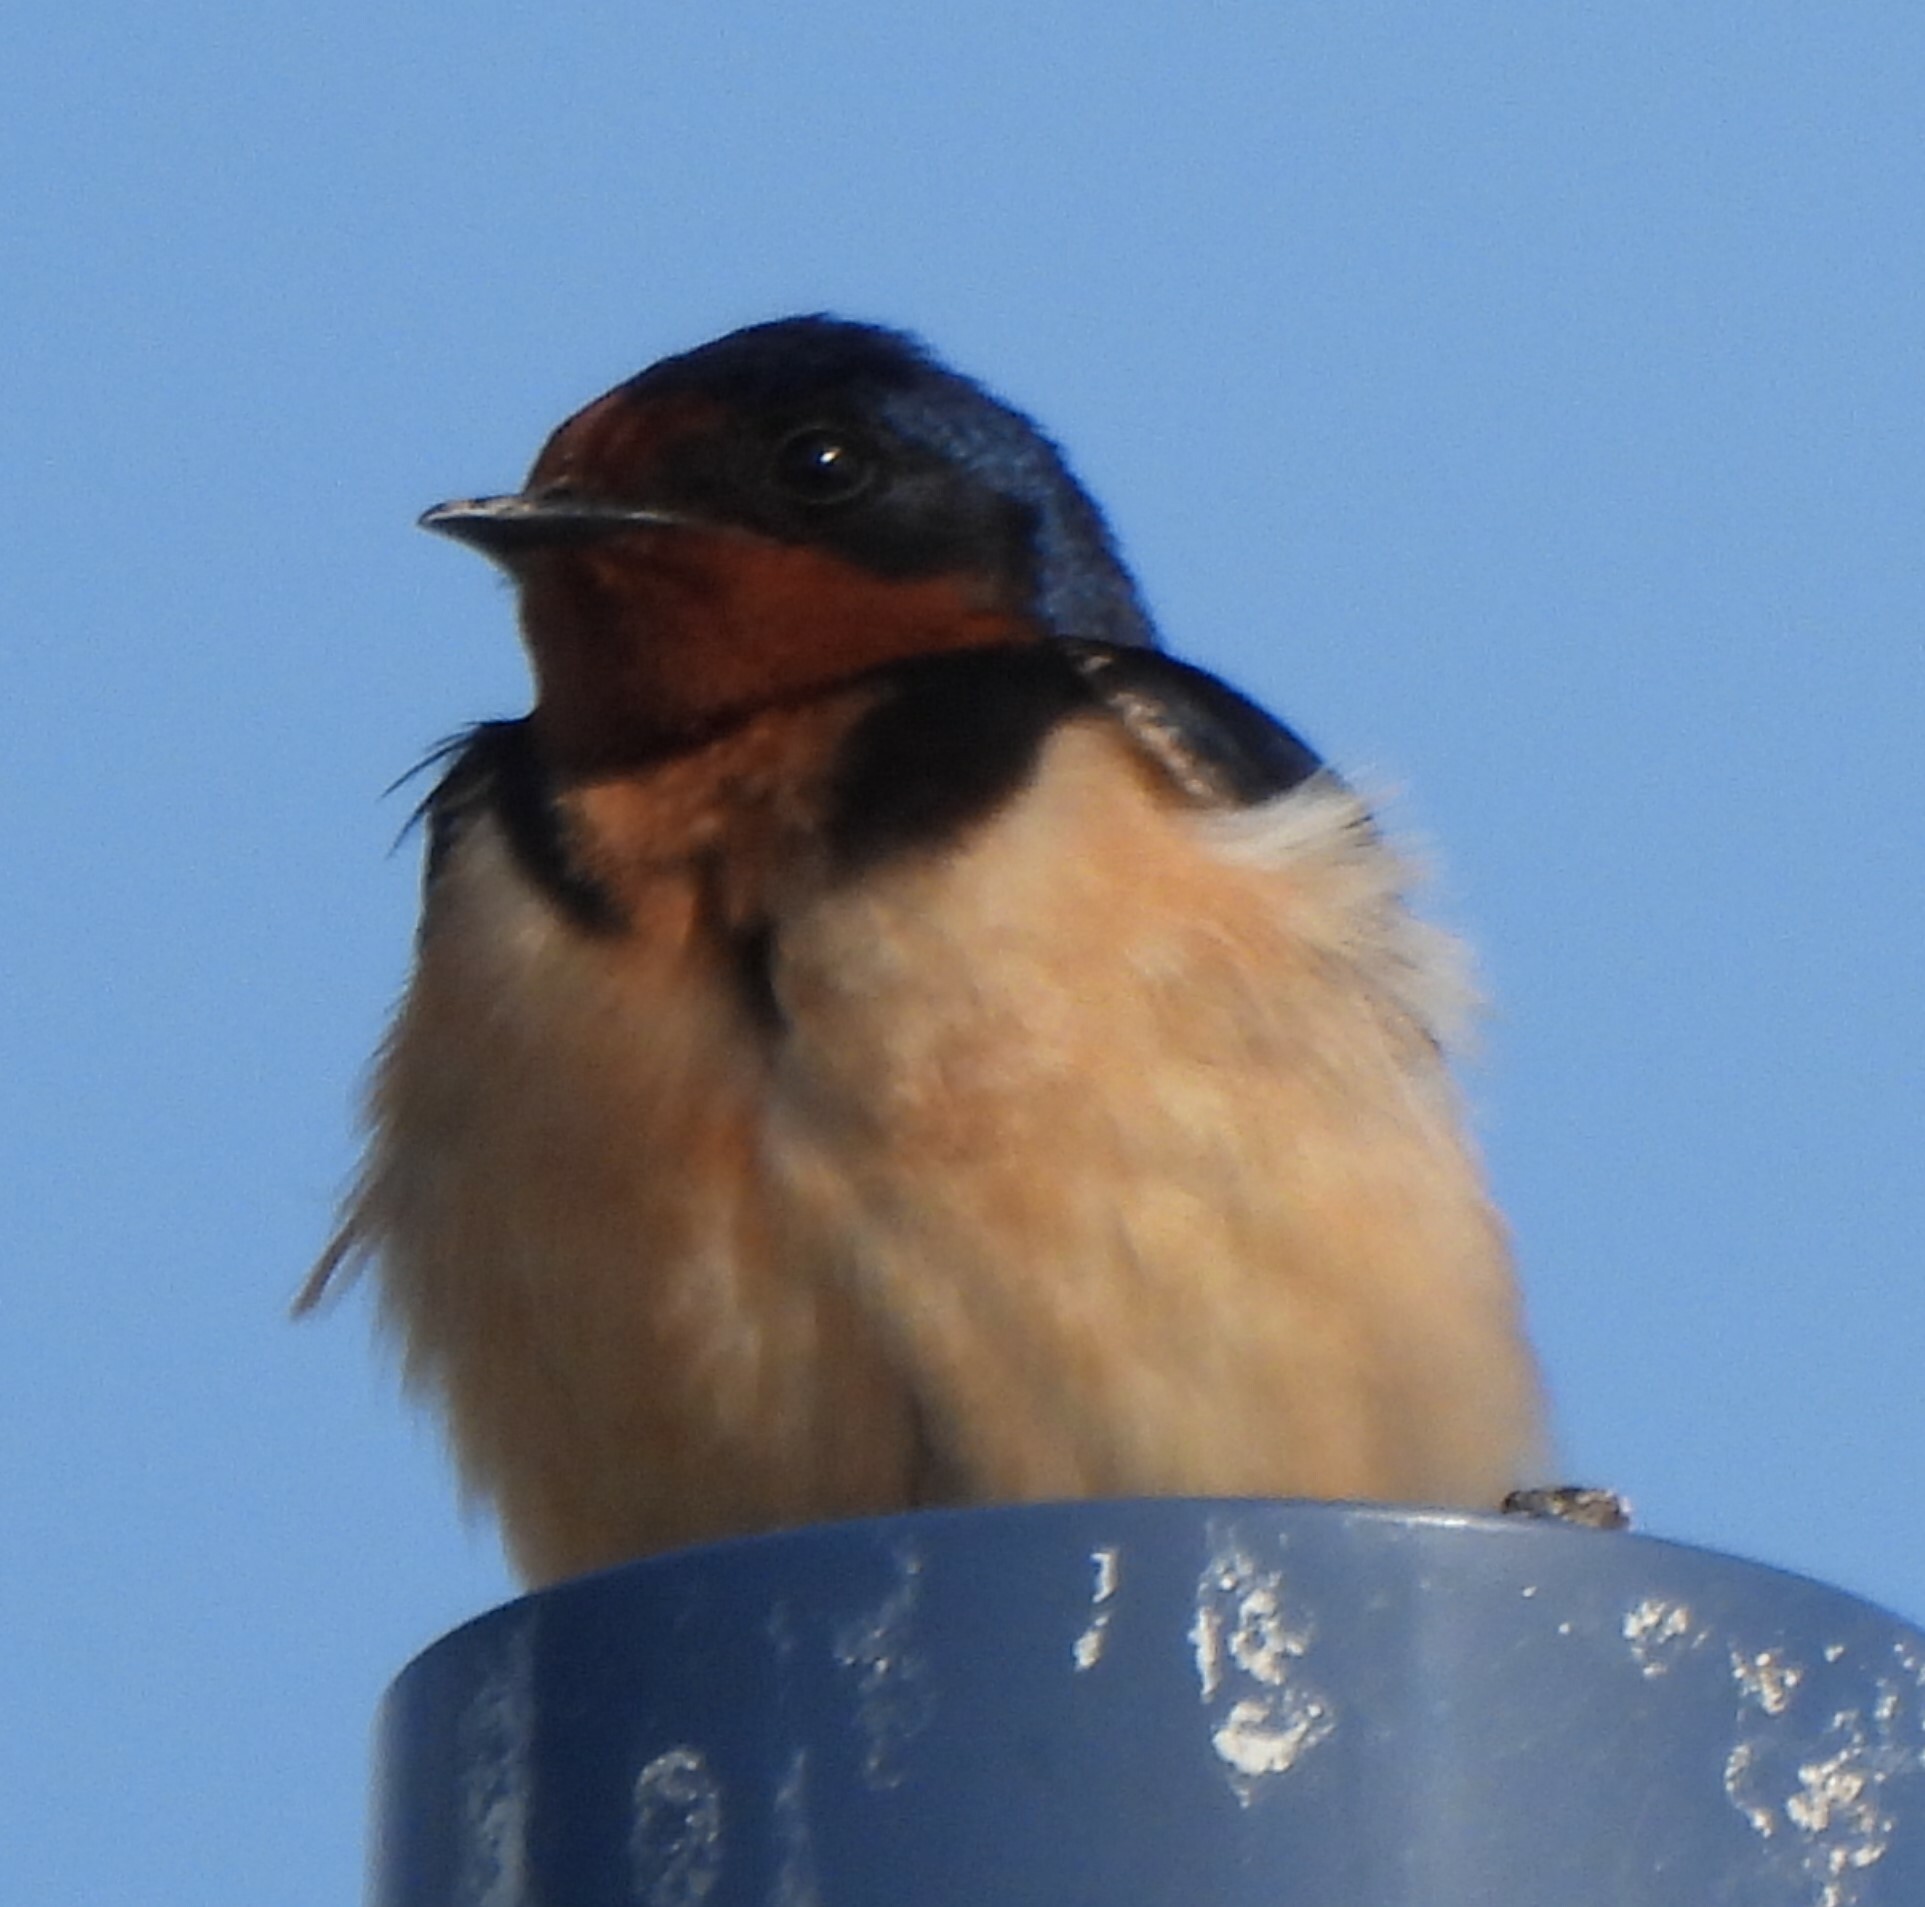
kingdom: Animalia
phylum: Chordata
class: Aves
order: Passeriformes
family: Hirundinidae
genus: Hirundo
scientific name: Hirundo rustica
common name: Barn swallow
